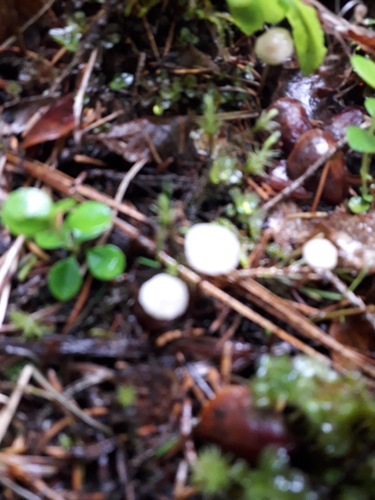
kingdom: Fungi
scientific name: Fungi
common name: Fungi
